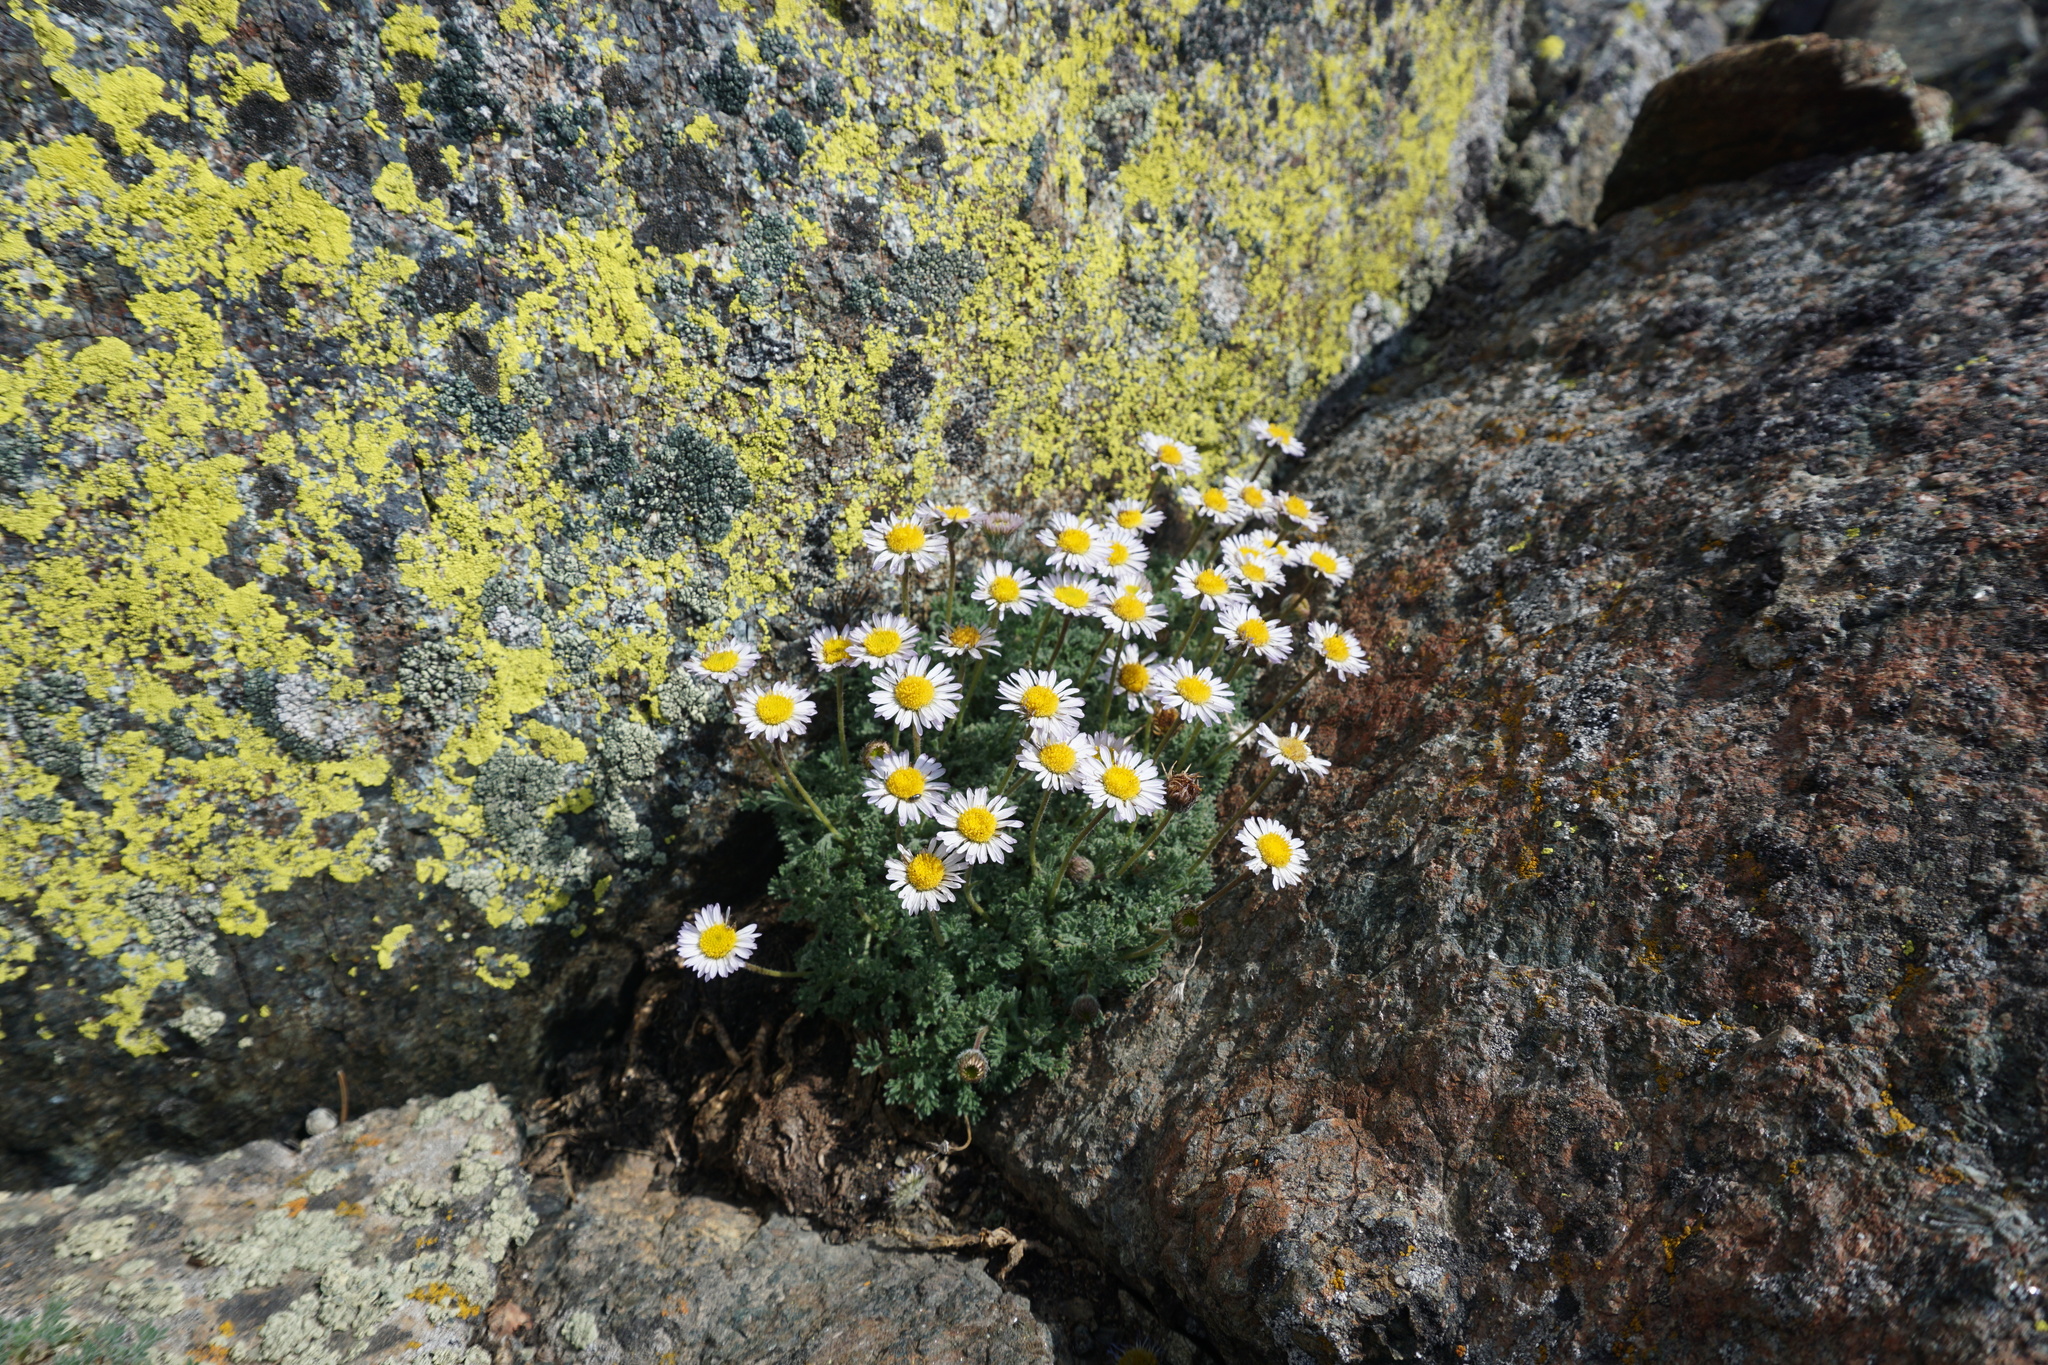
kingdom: Plantae
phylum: Tracheophyta
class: Magnoliopsida
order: Asterales
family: Asteraceae
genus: Erigeron
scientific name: Erigeron compositus
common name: Dwarf mountain fleabane
